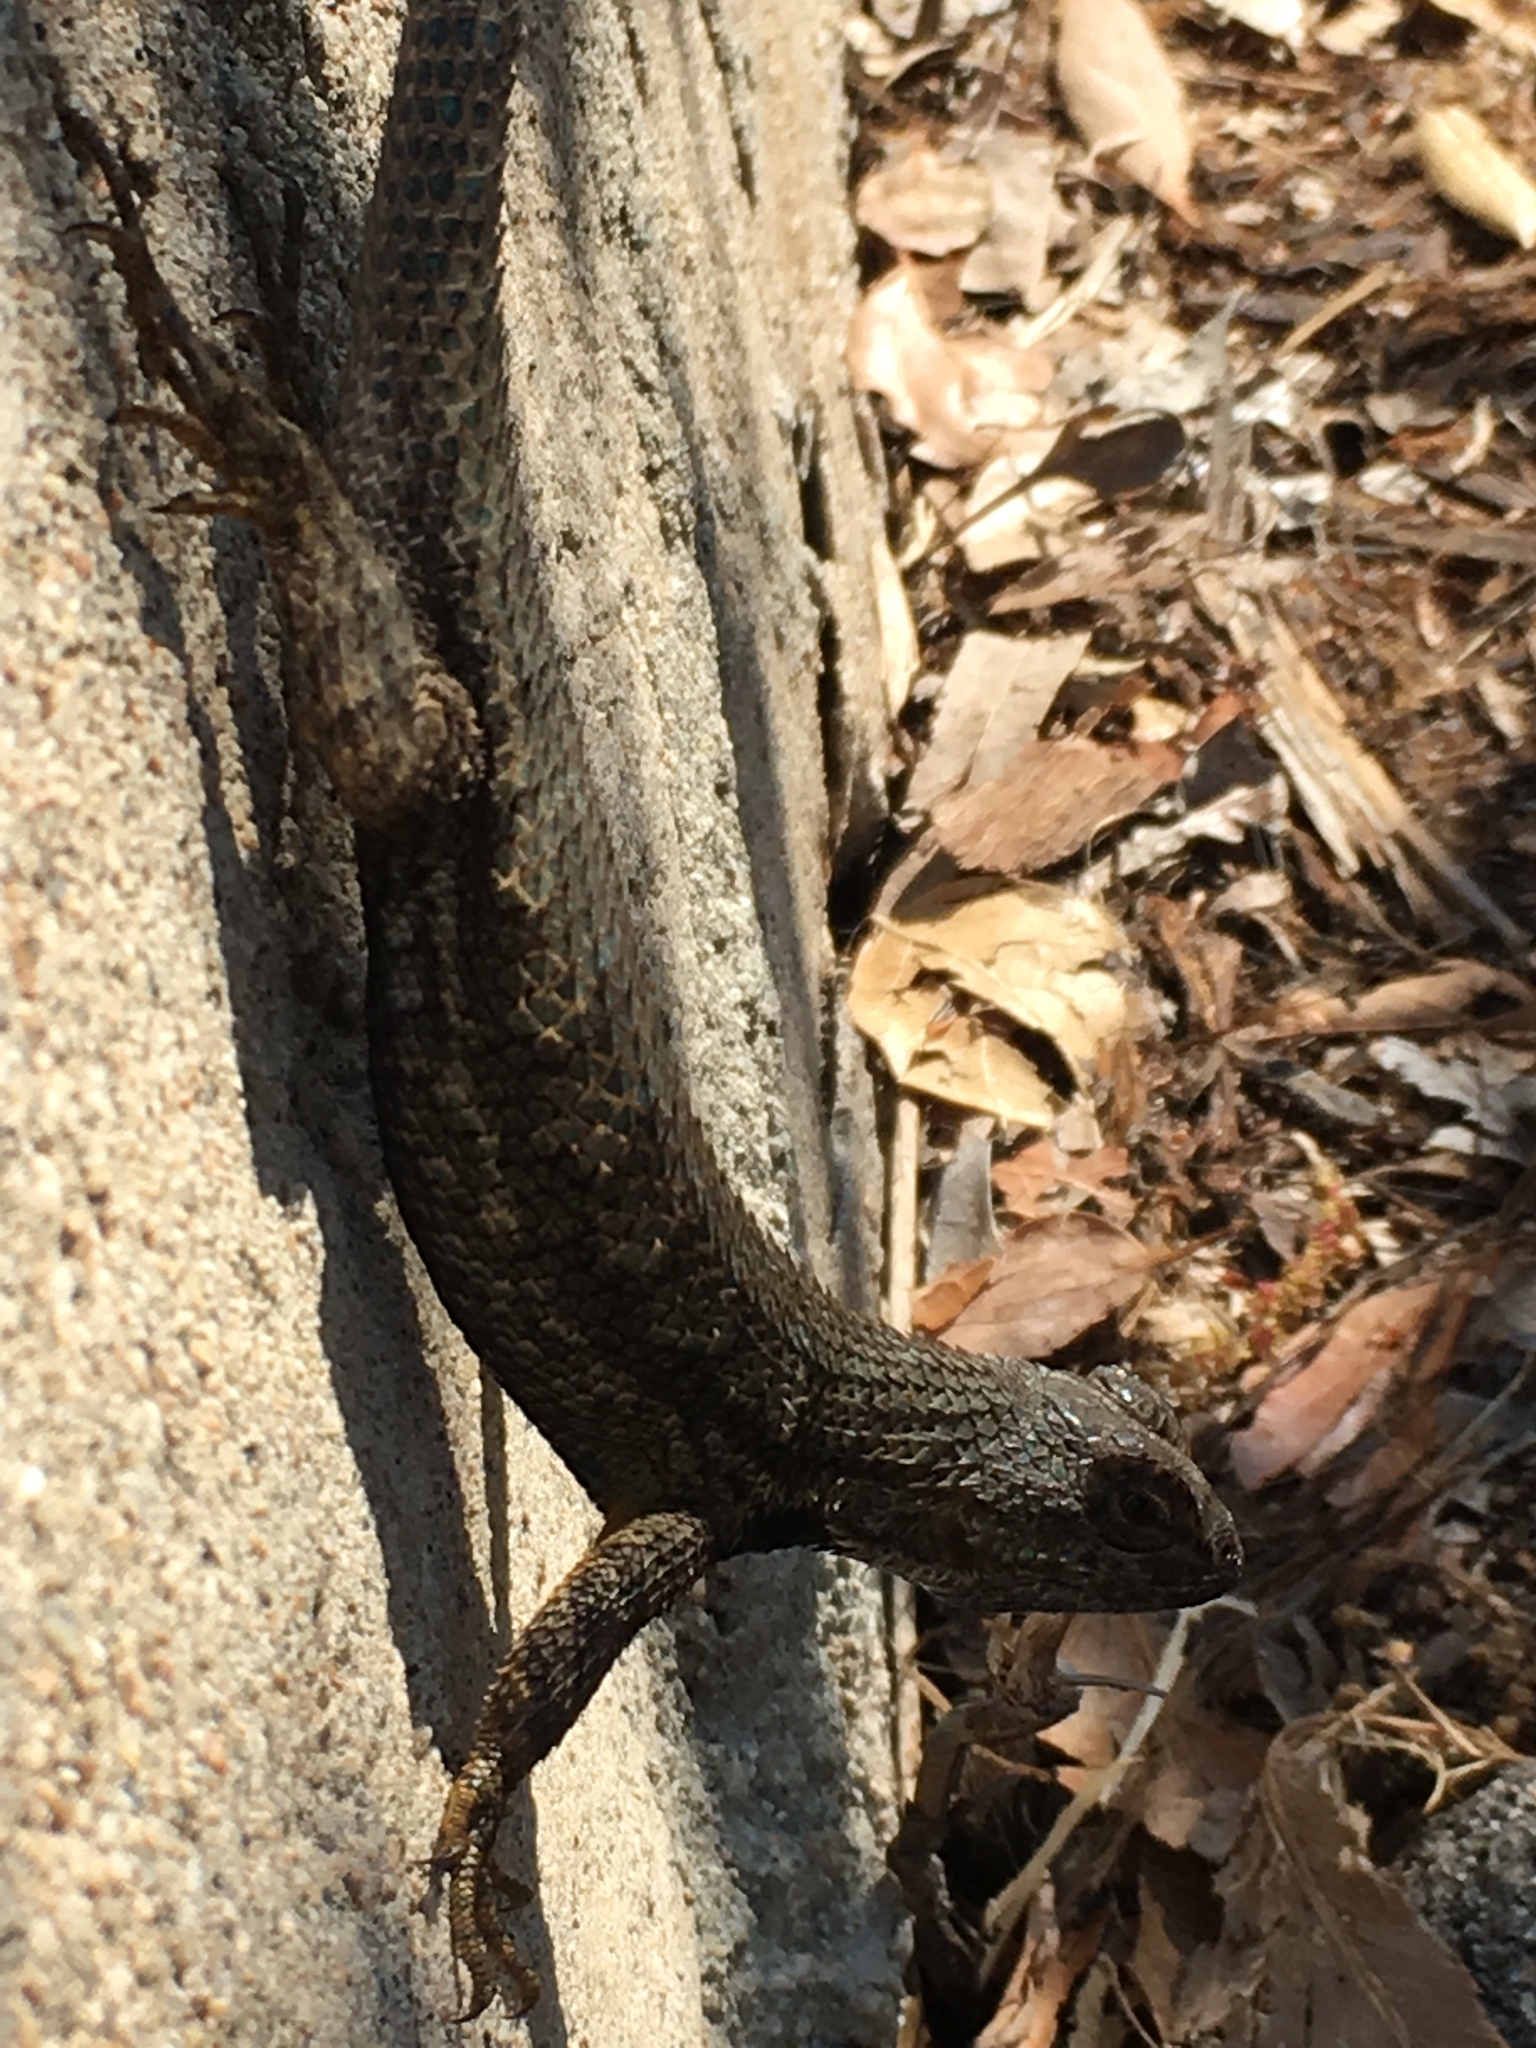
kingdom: Animalia
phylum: Chordata
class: Squamata
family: Phrynosomatidae
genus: Sceloporus
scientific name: Sceloporus occidentalis
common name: Western fence lizard
